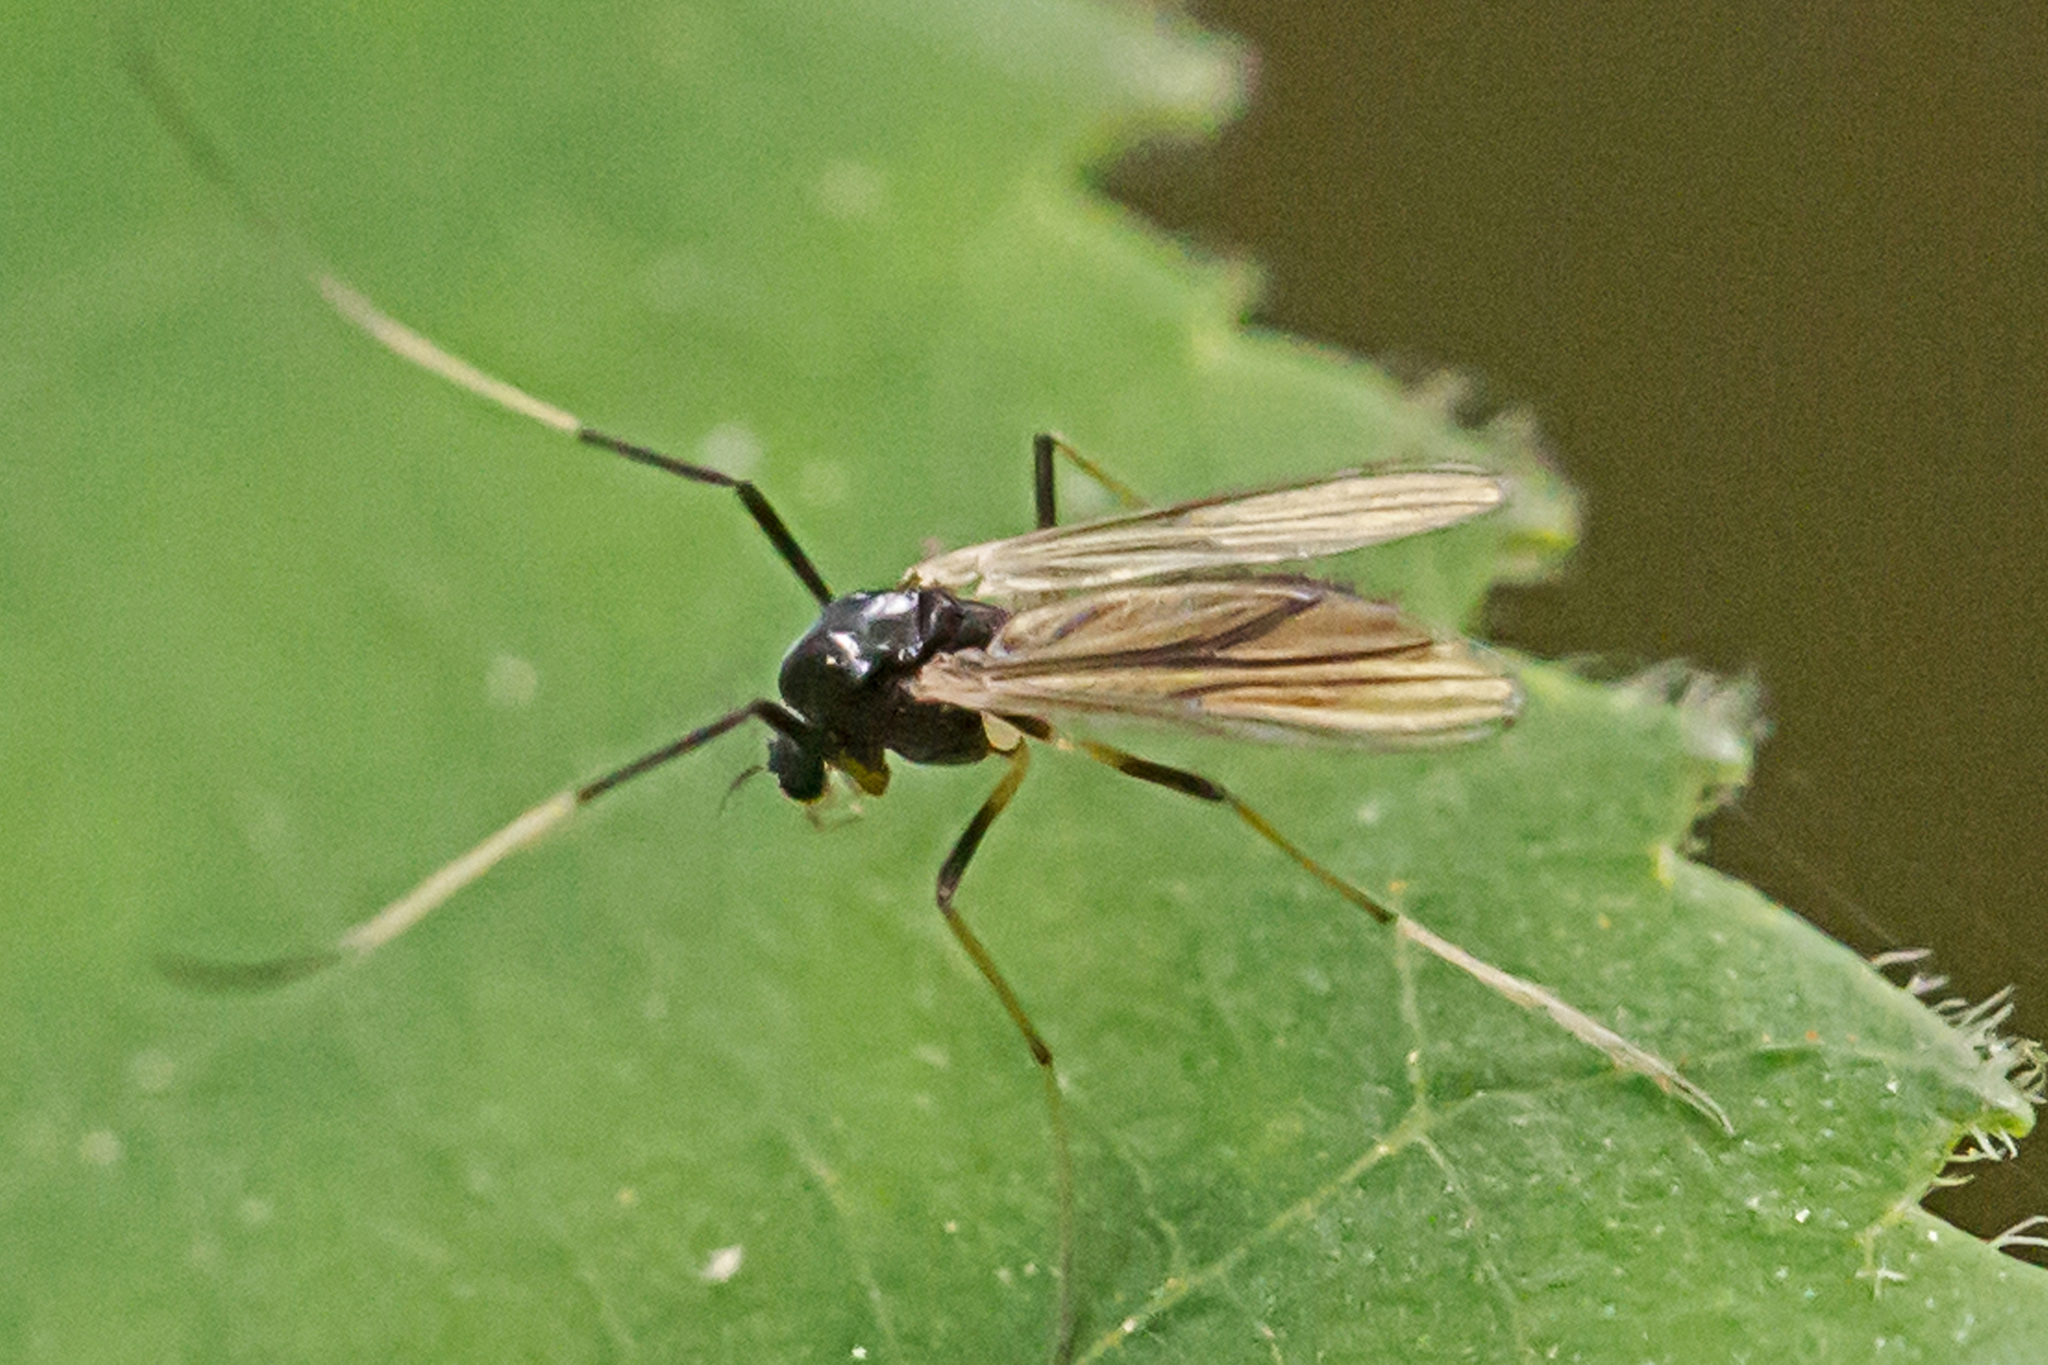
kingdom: Animalia
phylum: Arthropoda
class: Insecta
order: Diptera
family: Chironomidae
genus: Paratendipes
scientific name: Paratendipes albimanus
